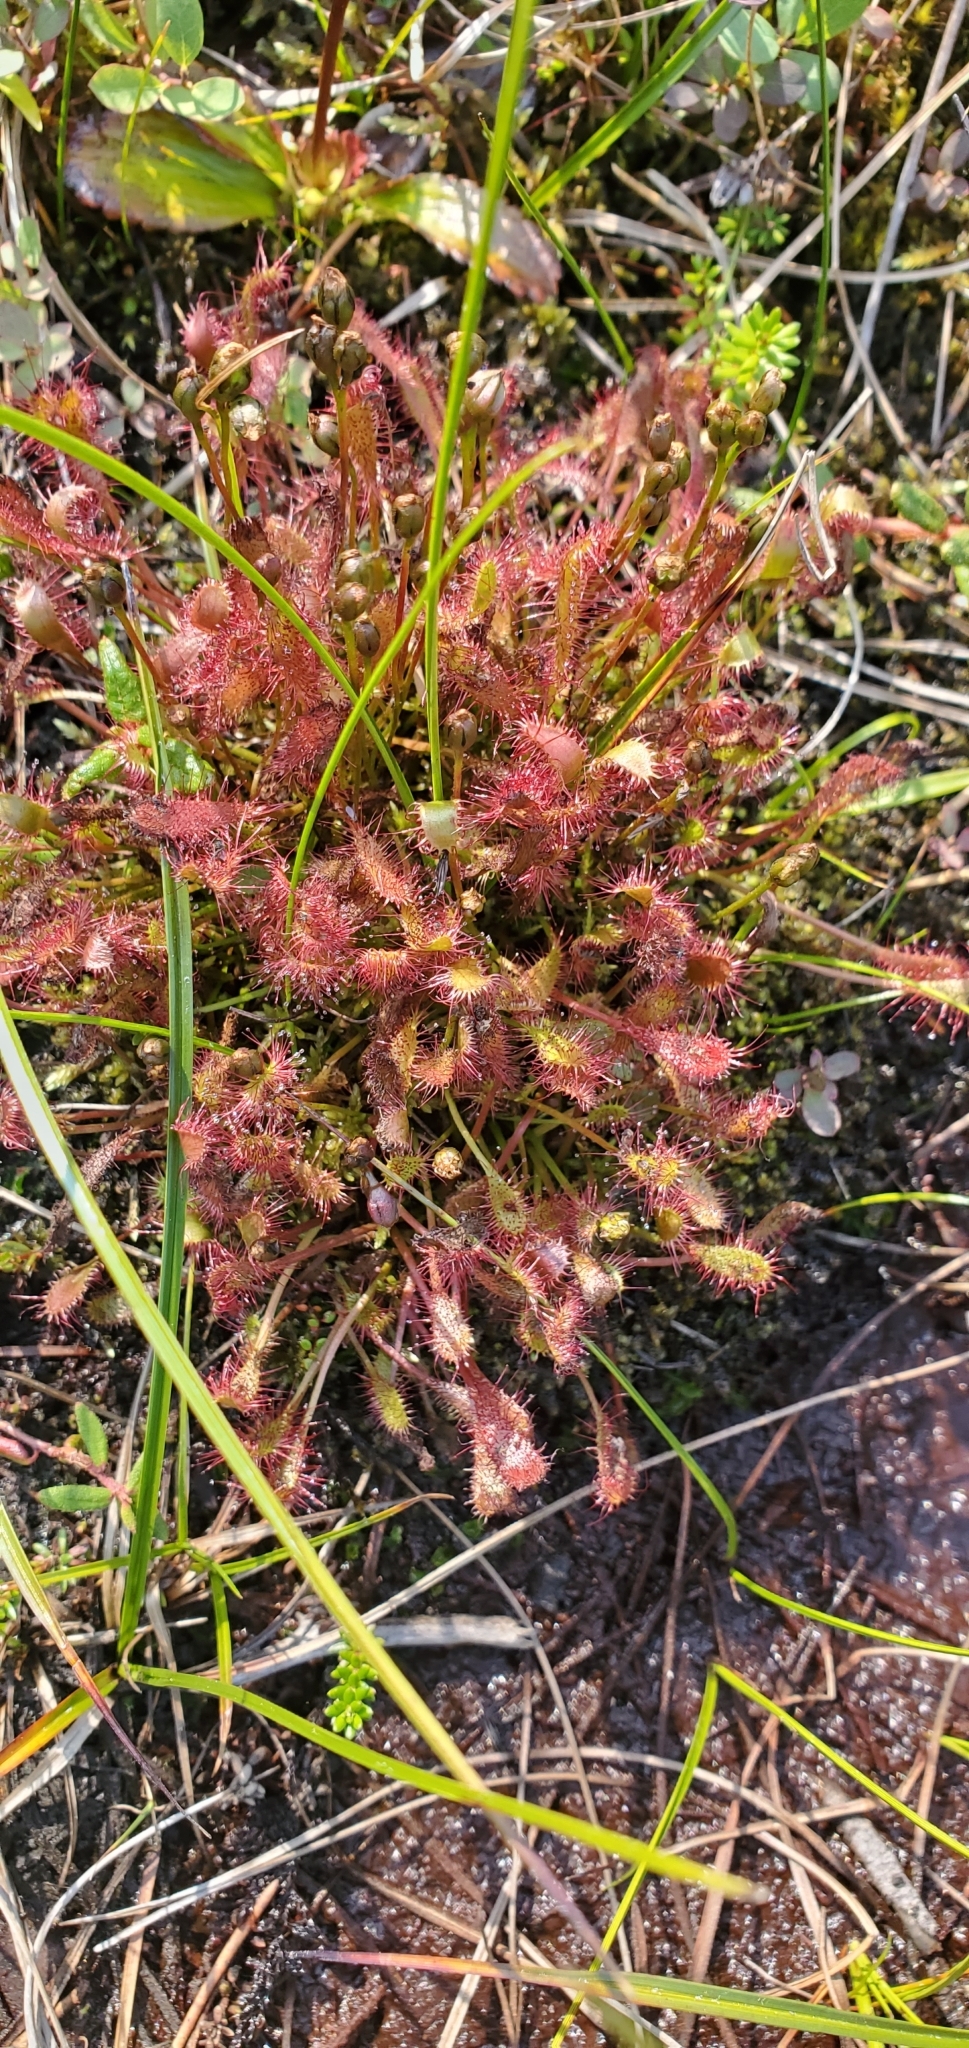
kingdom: Plantae
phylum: Tracheophyta
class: Magnoliopsida
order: Caryophyllales
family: Droseraceae
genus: Drosera
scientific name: Drosera anglica
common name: Great sundew
